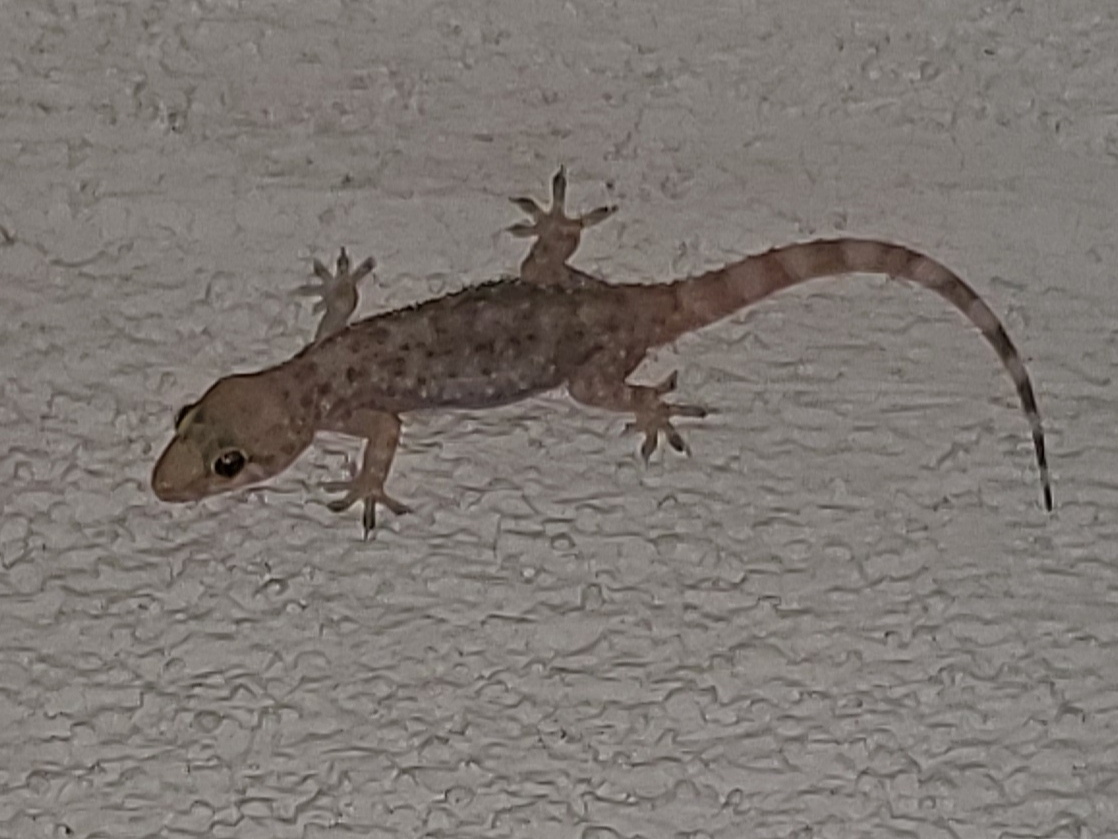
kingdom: Animalia
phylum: Chordata
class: Squamata
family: Gekkonidae
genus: Hemidactylus
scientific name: Hemidactylus turcicus
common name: Turkish gecko
